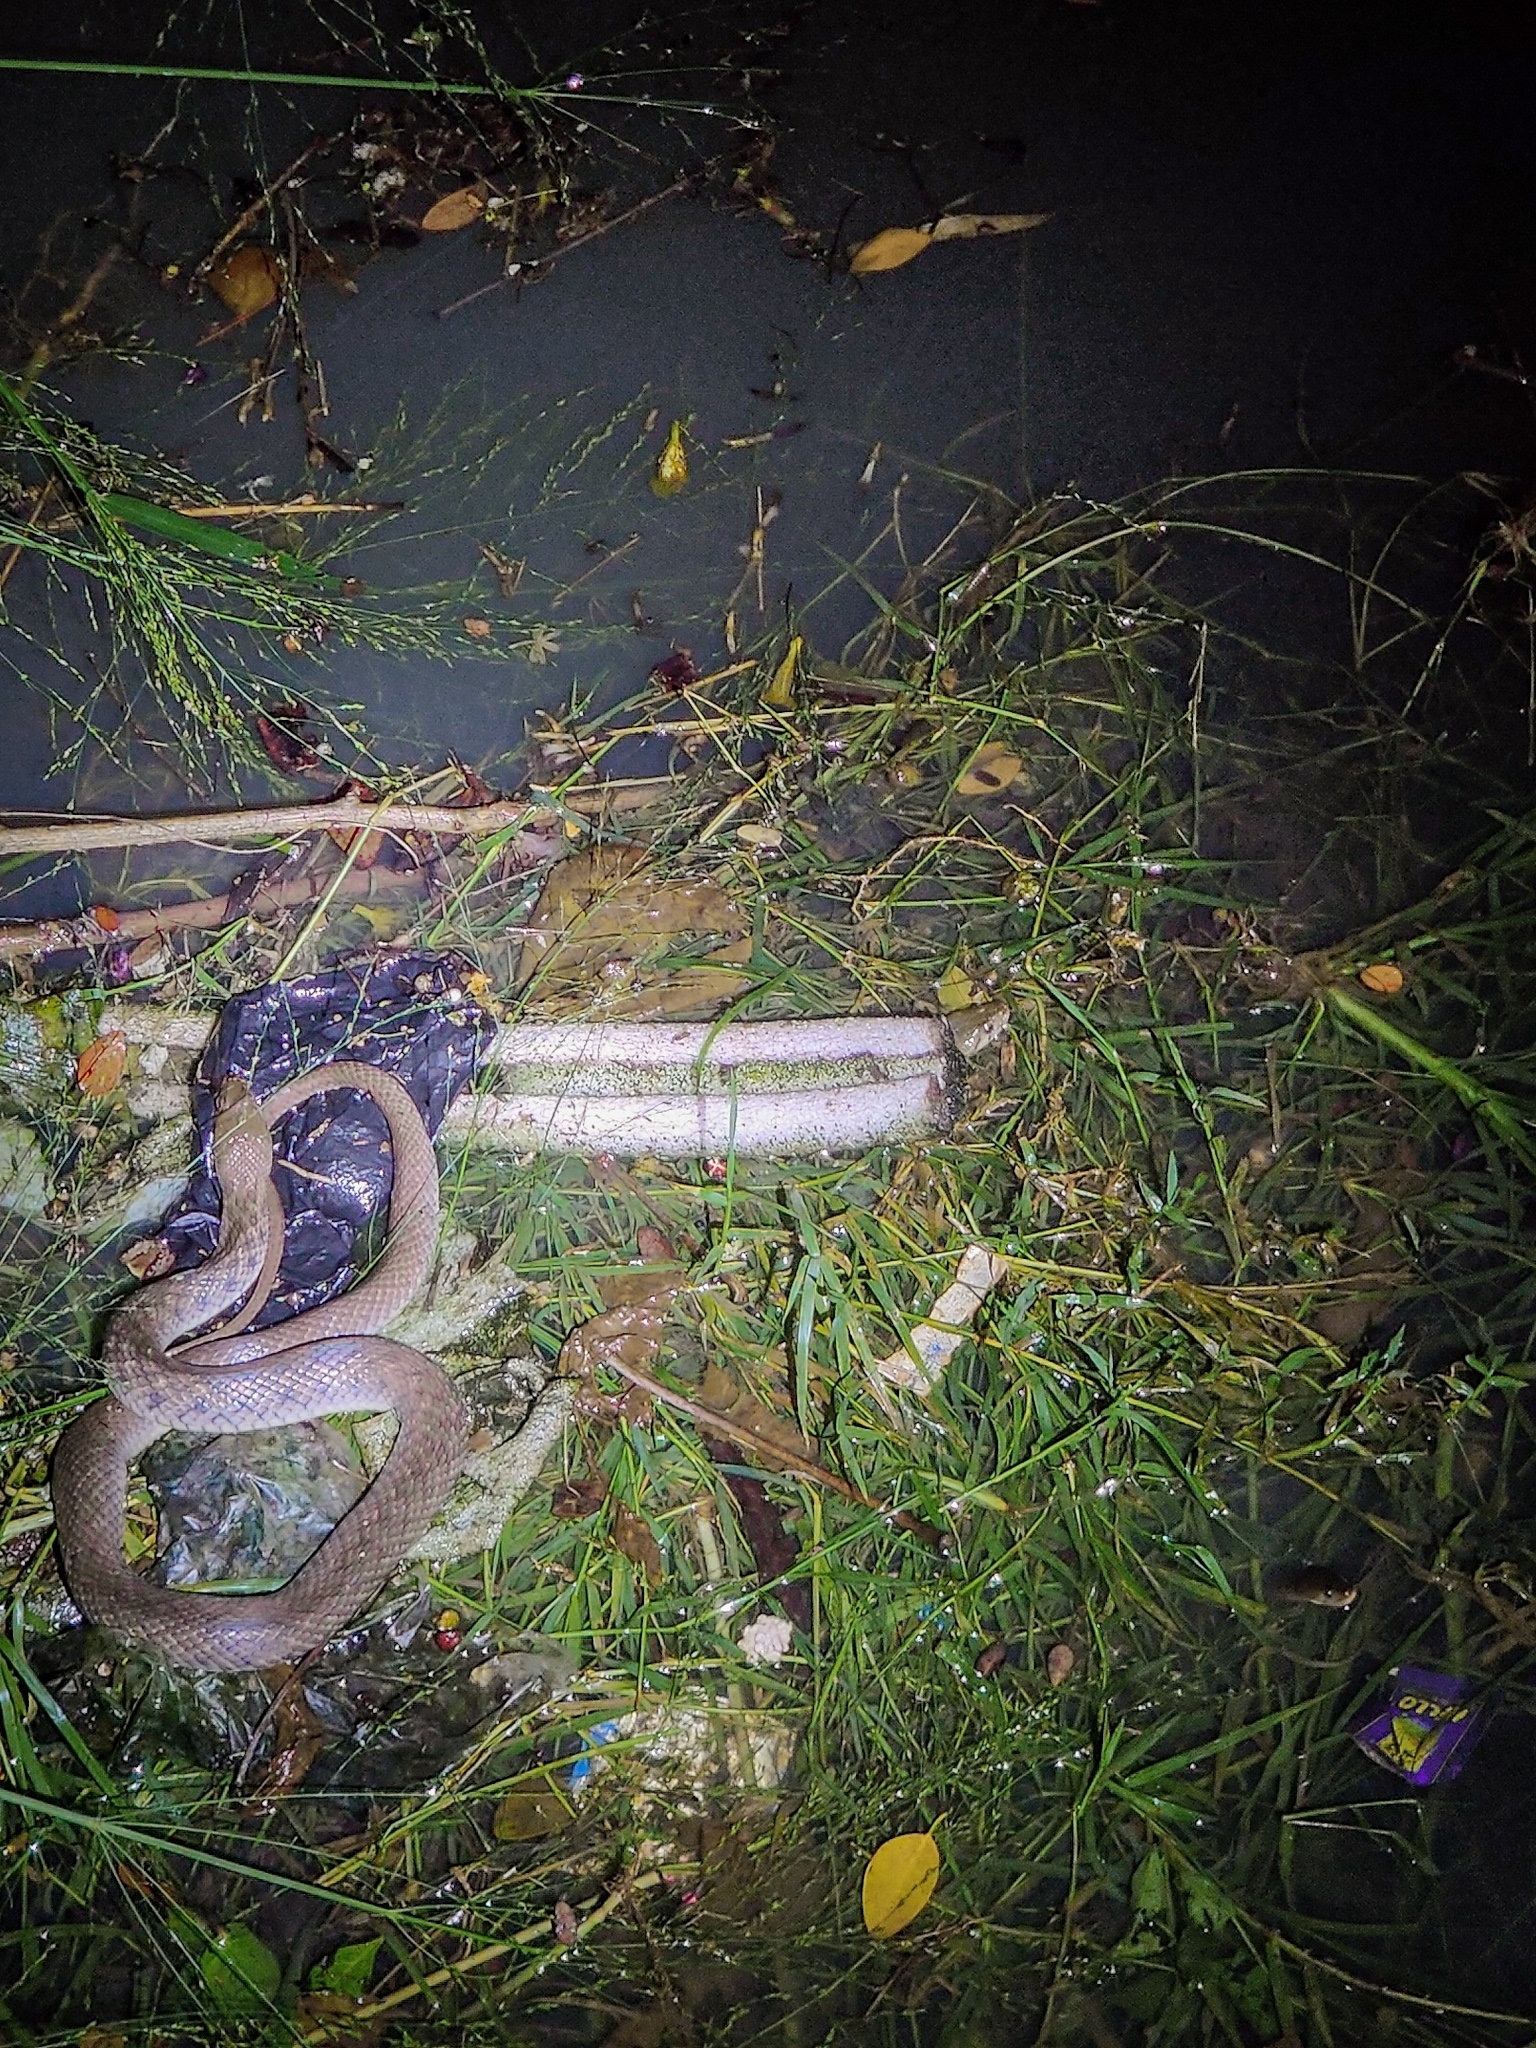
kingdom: Animalia
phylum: Chordata
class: Squamata
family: Colubridae
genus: Fowlea
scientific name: Fowlea piscator
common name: Asiatic water snake
